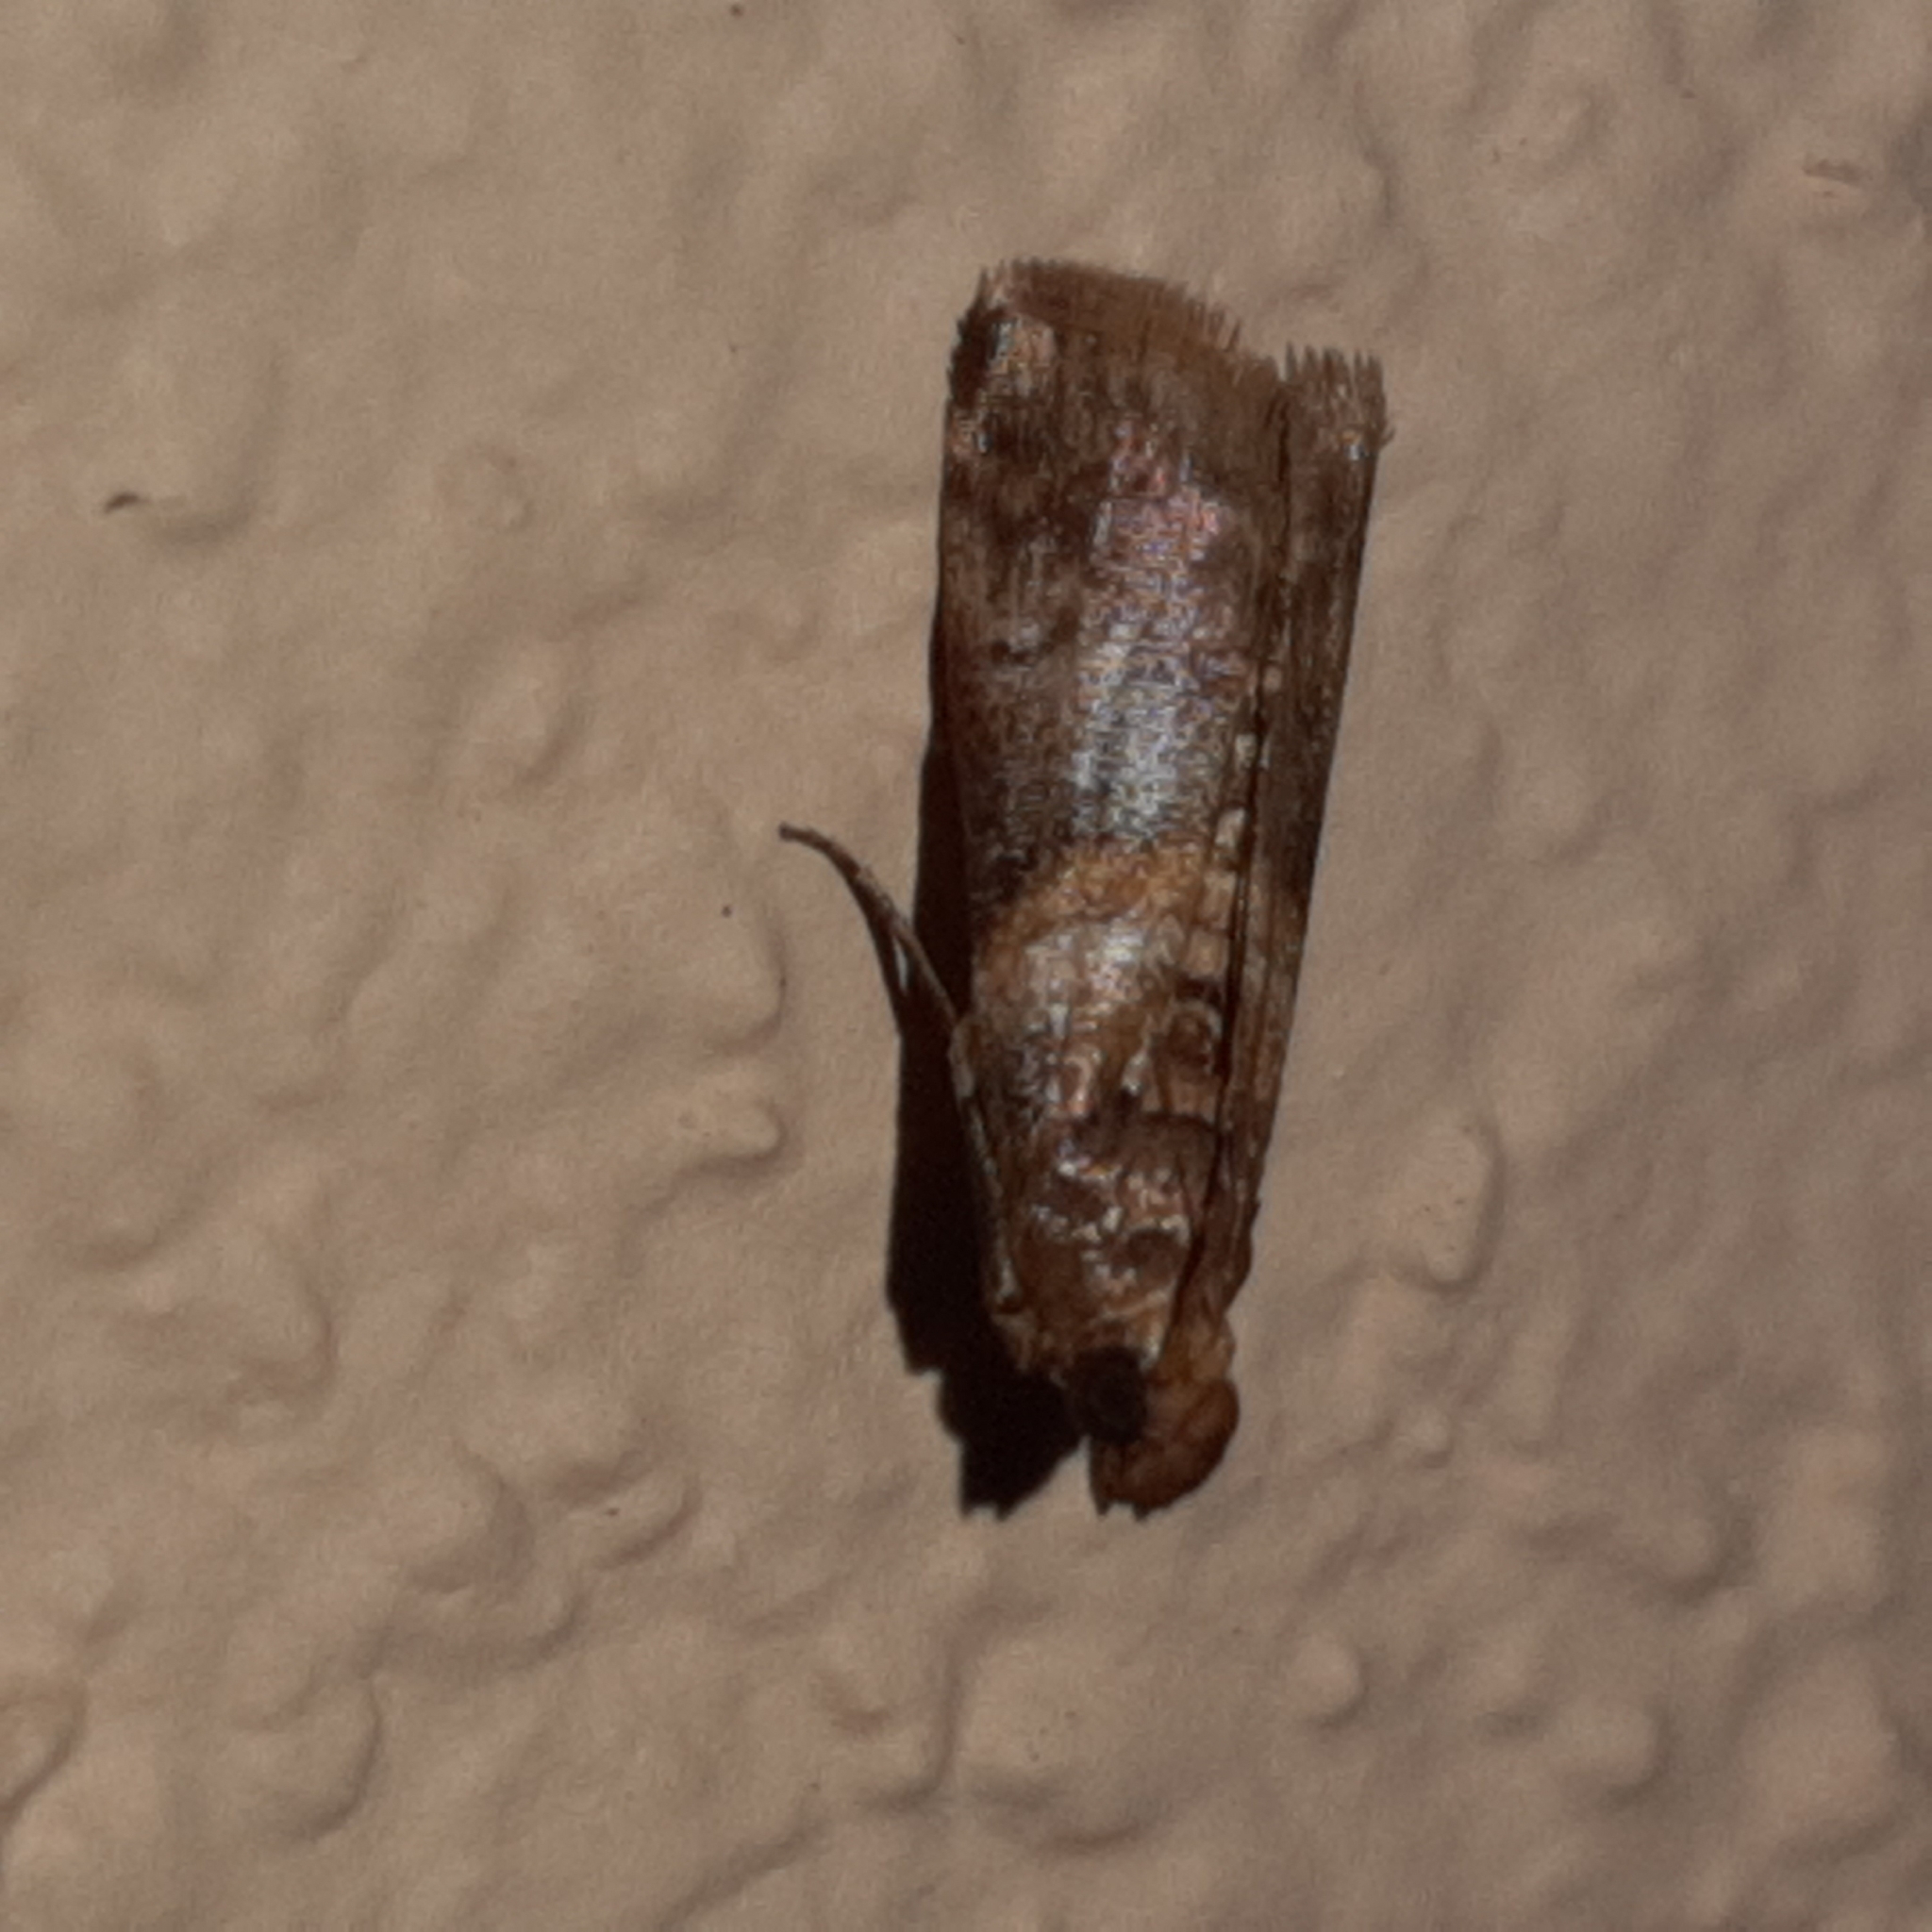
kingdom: Animalia
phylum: Arthropoda
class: Insecta
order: Lepidoptera
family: Pyralidae
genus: Davara
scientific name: Davara caricae
